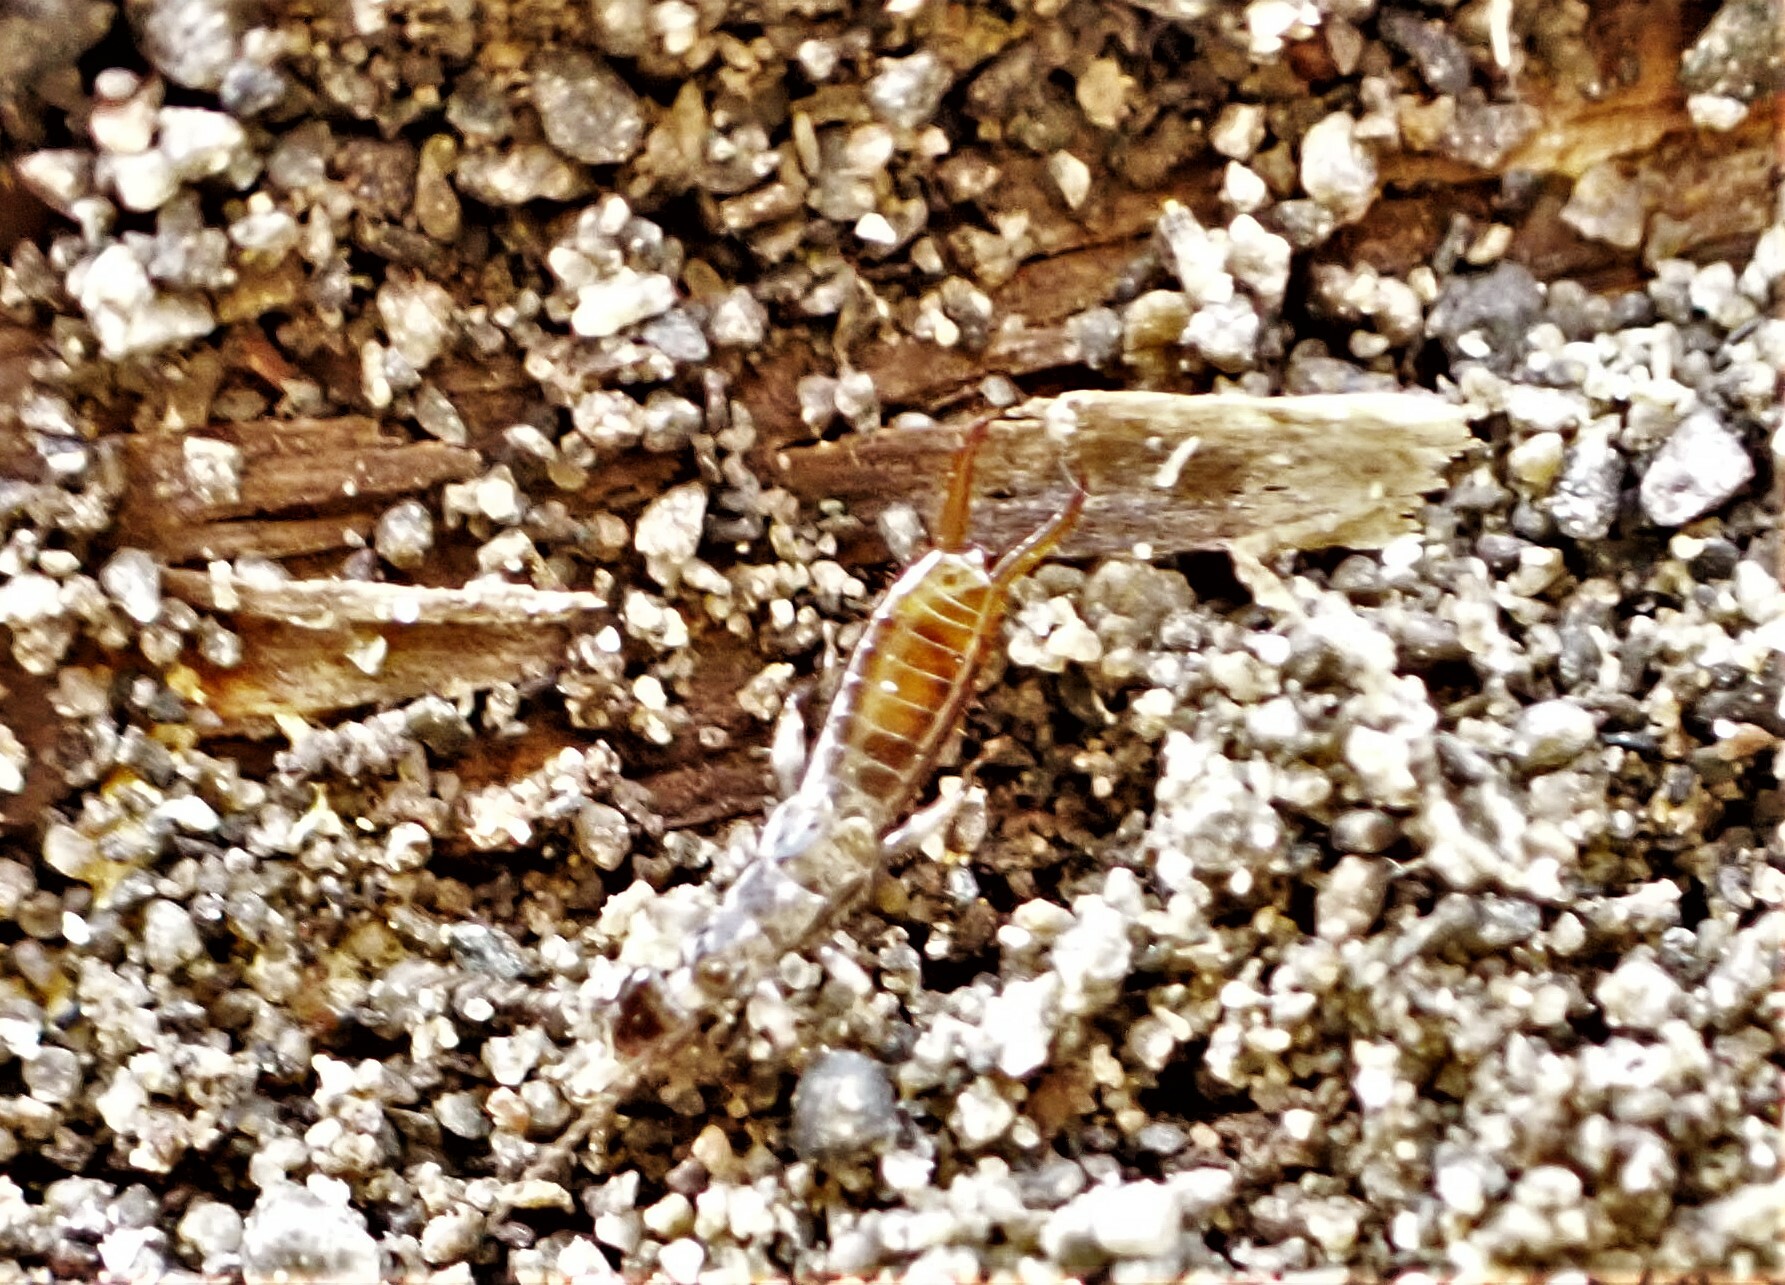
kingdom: Animalia
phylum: Arthropoda
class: Insecta
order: Dermaptera
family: Spongiphoridae
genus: Paraspania
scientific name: Paraspania brunneri
